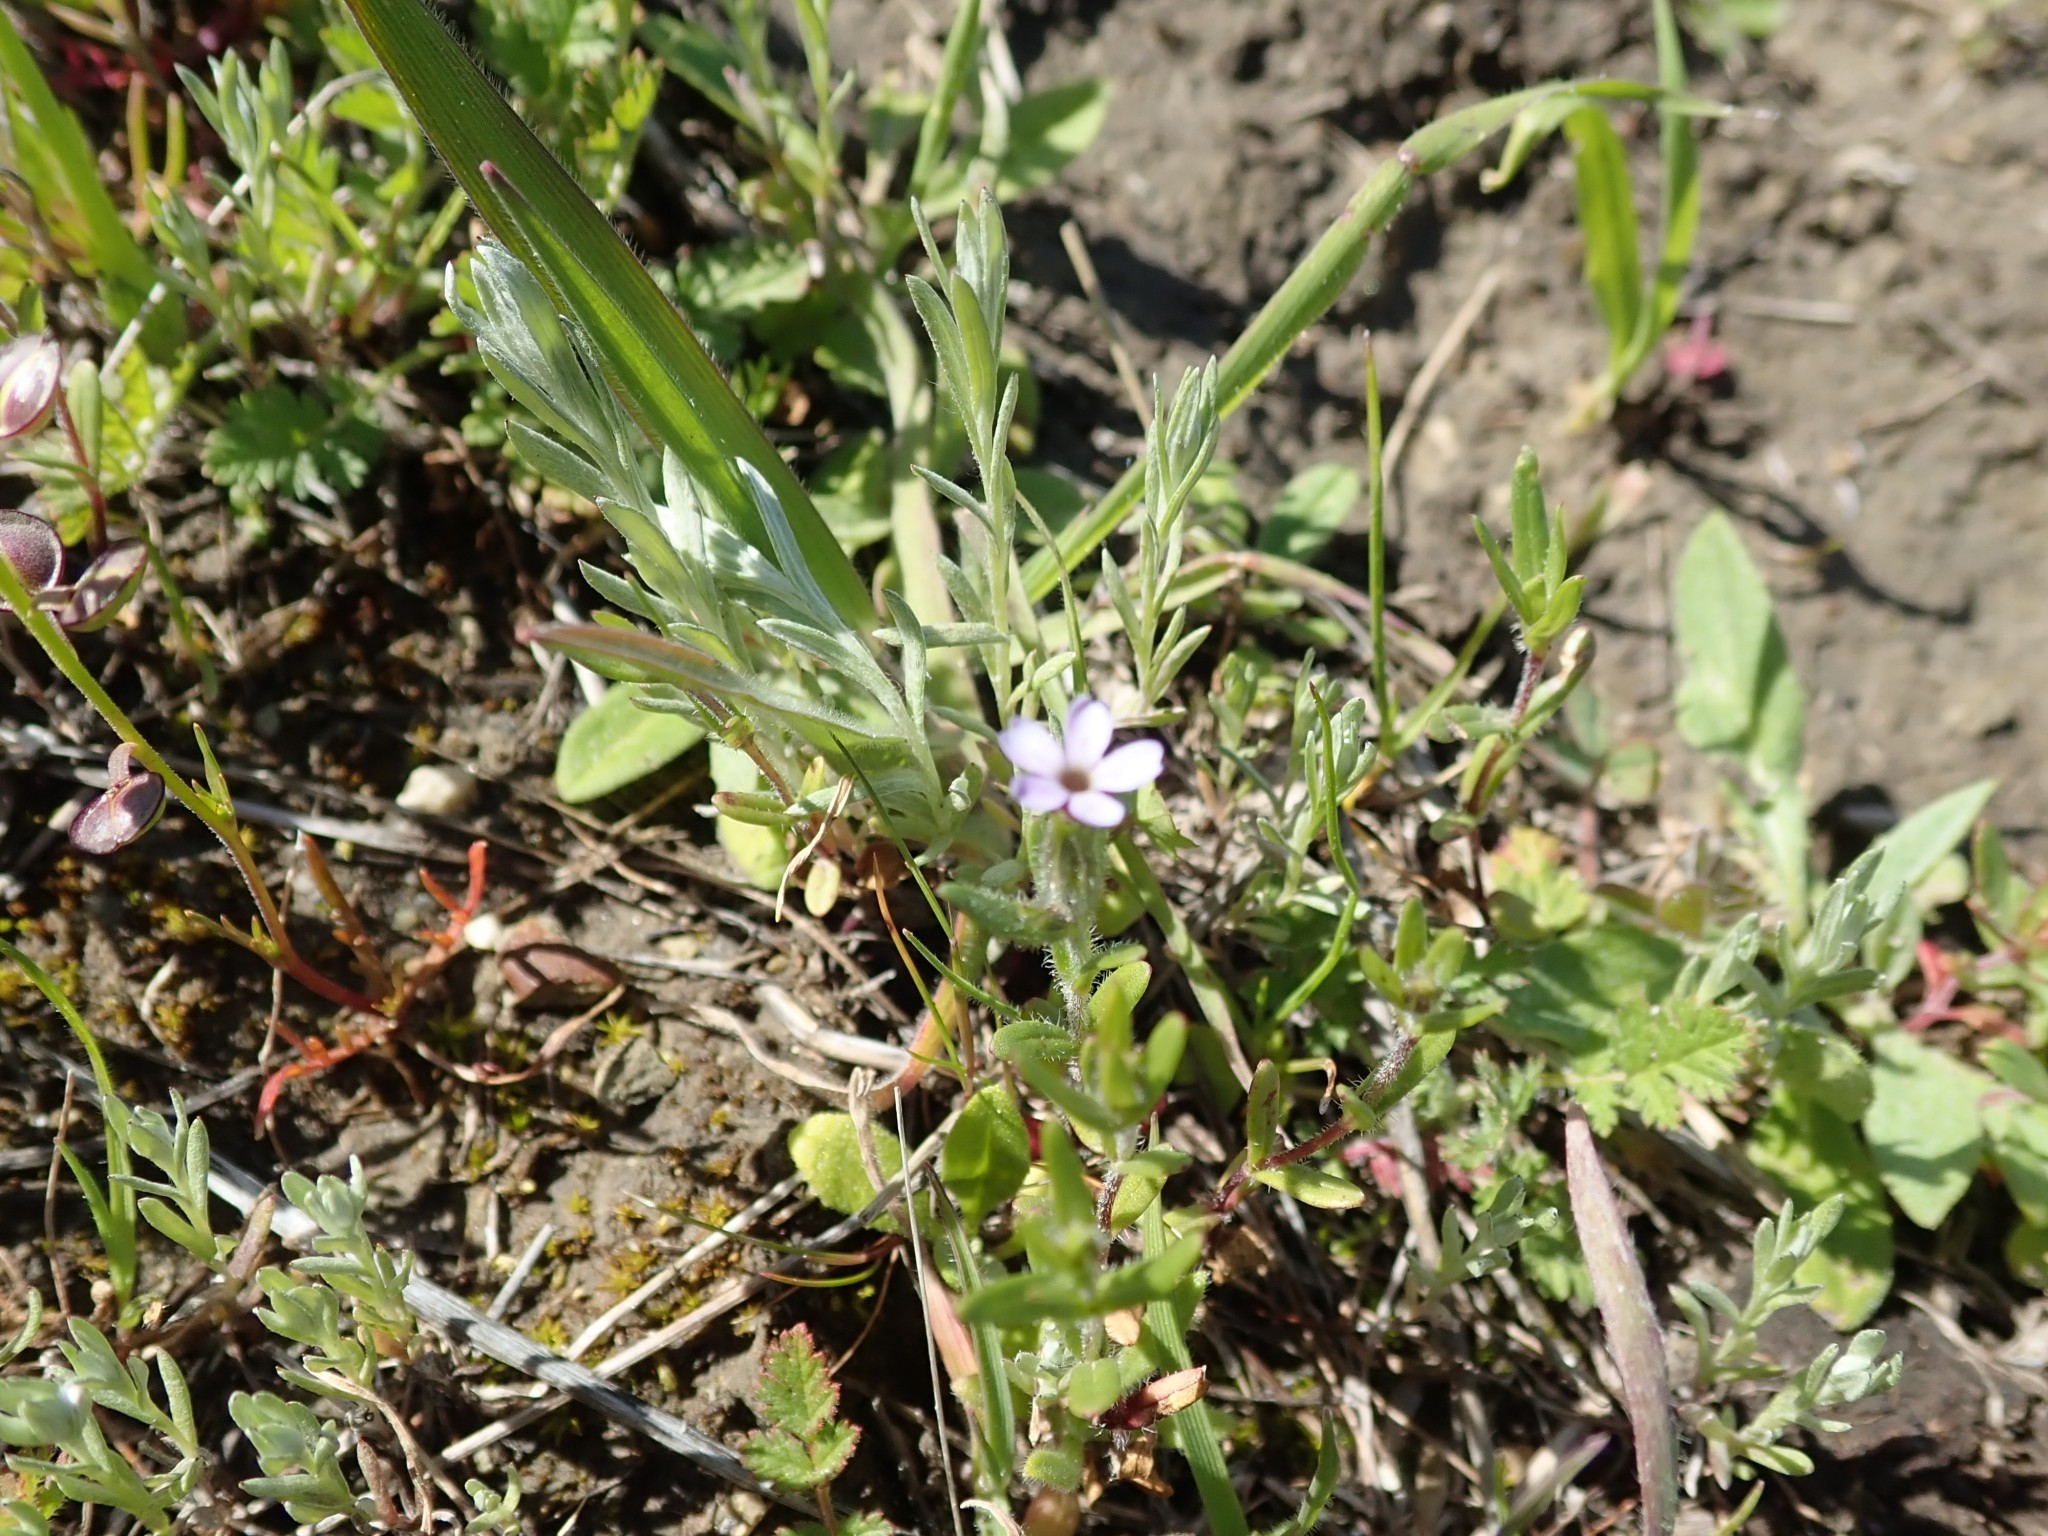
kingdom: Plantae
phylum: Tracheophyta
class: Magnoliopsida
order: Ericales
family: Polemoniaceae
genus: Phlox
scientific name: Phlox gracilis
